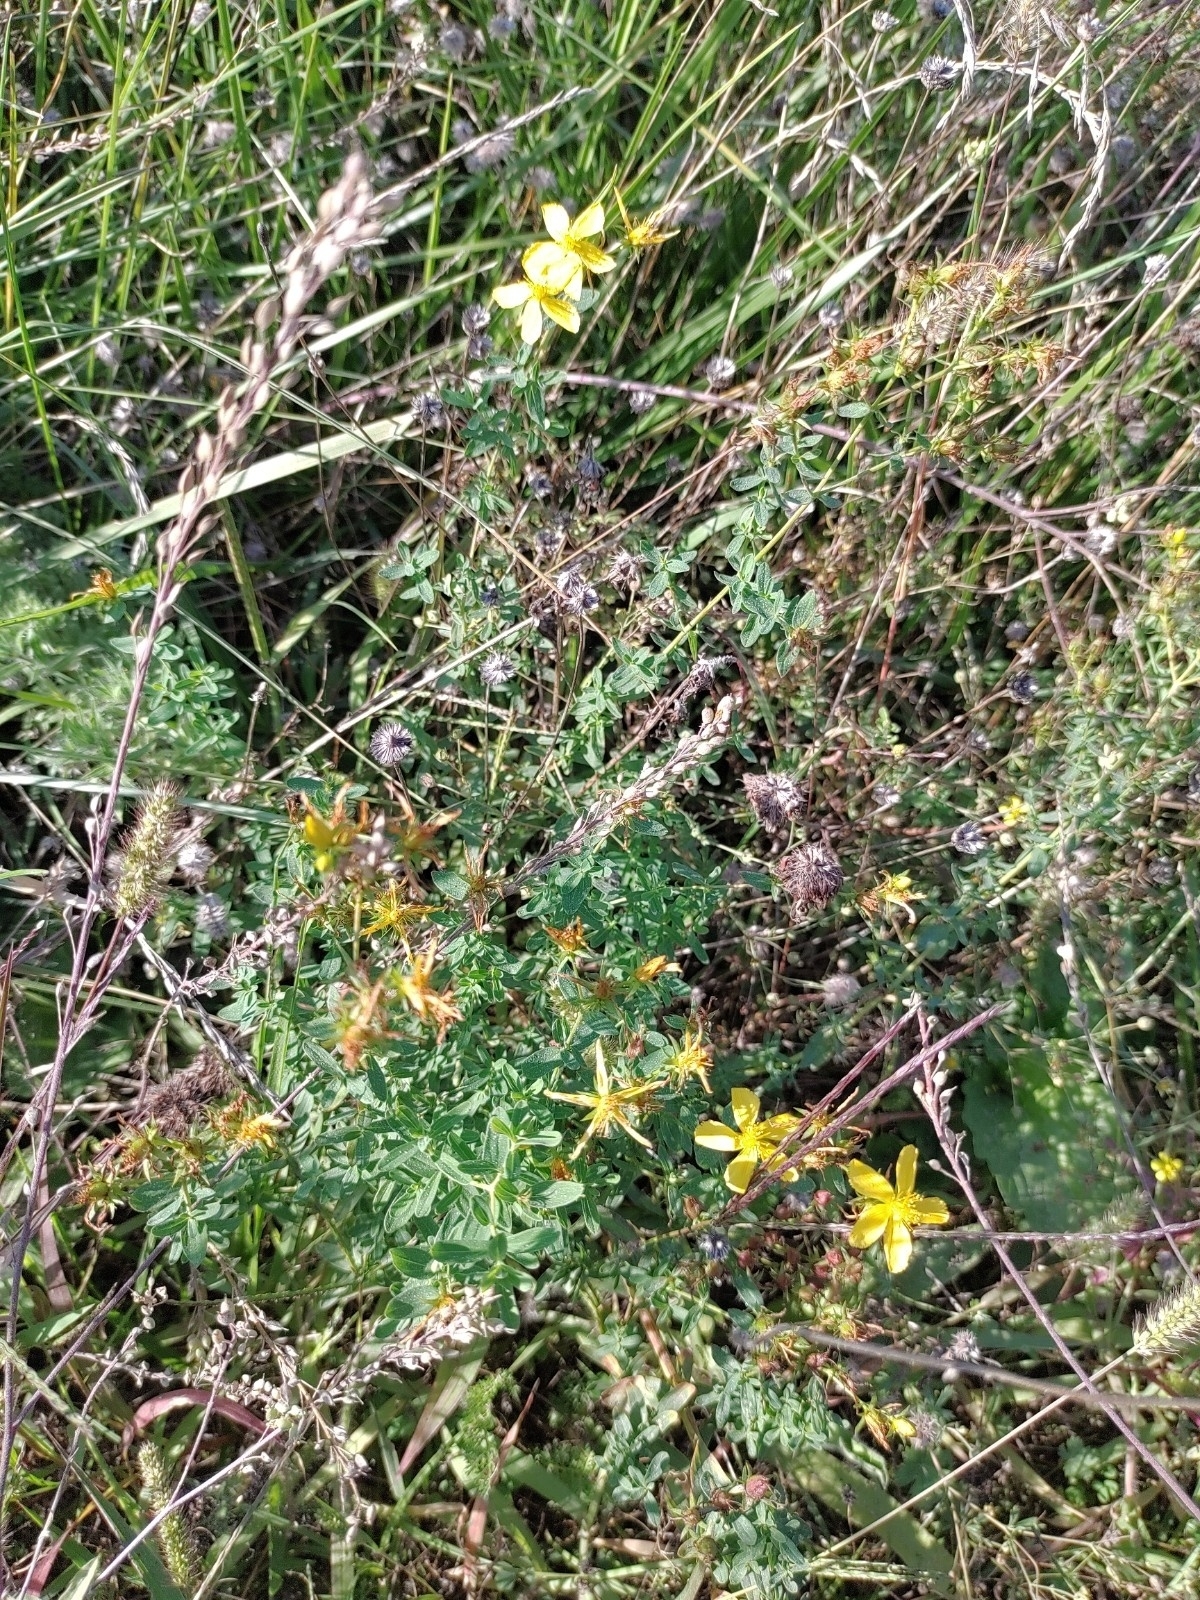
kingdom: Plantae
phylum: Tracheophyta
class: Magnoliopsida
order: Malpighiales
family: Hypericaceae
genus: Hypericum
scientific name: Hypericum perforatum
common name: Common st. johnswort
